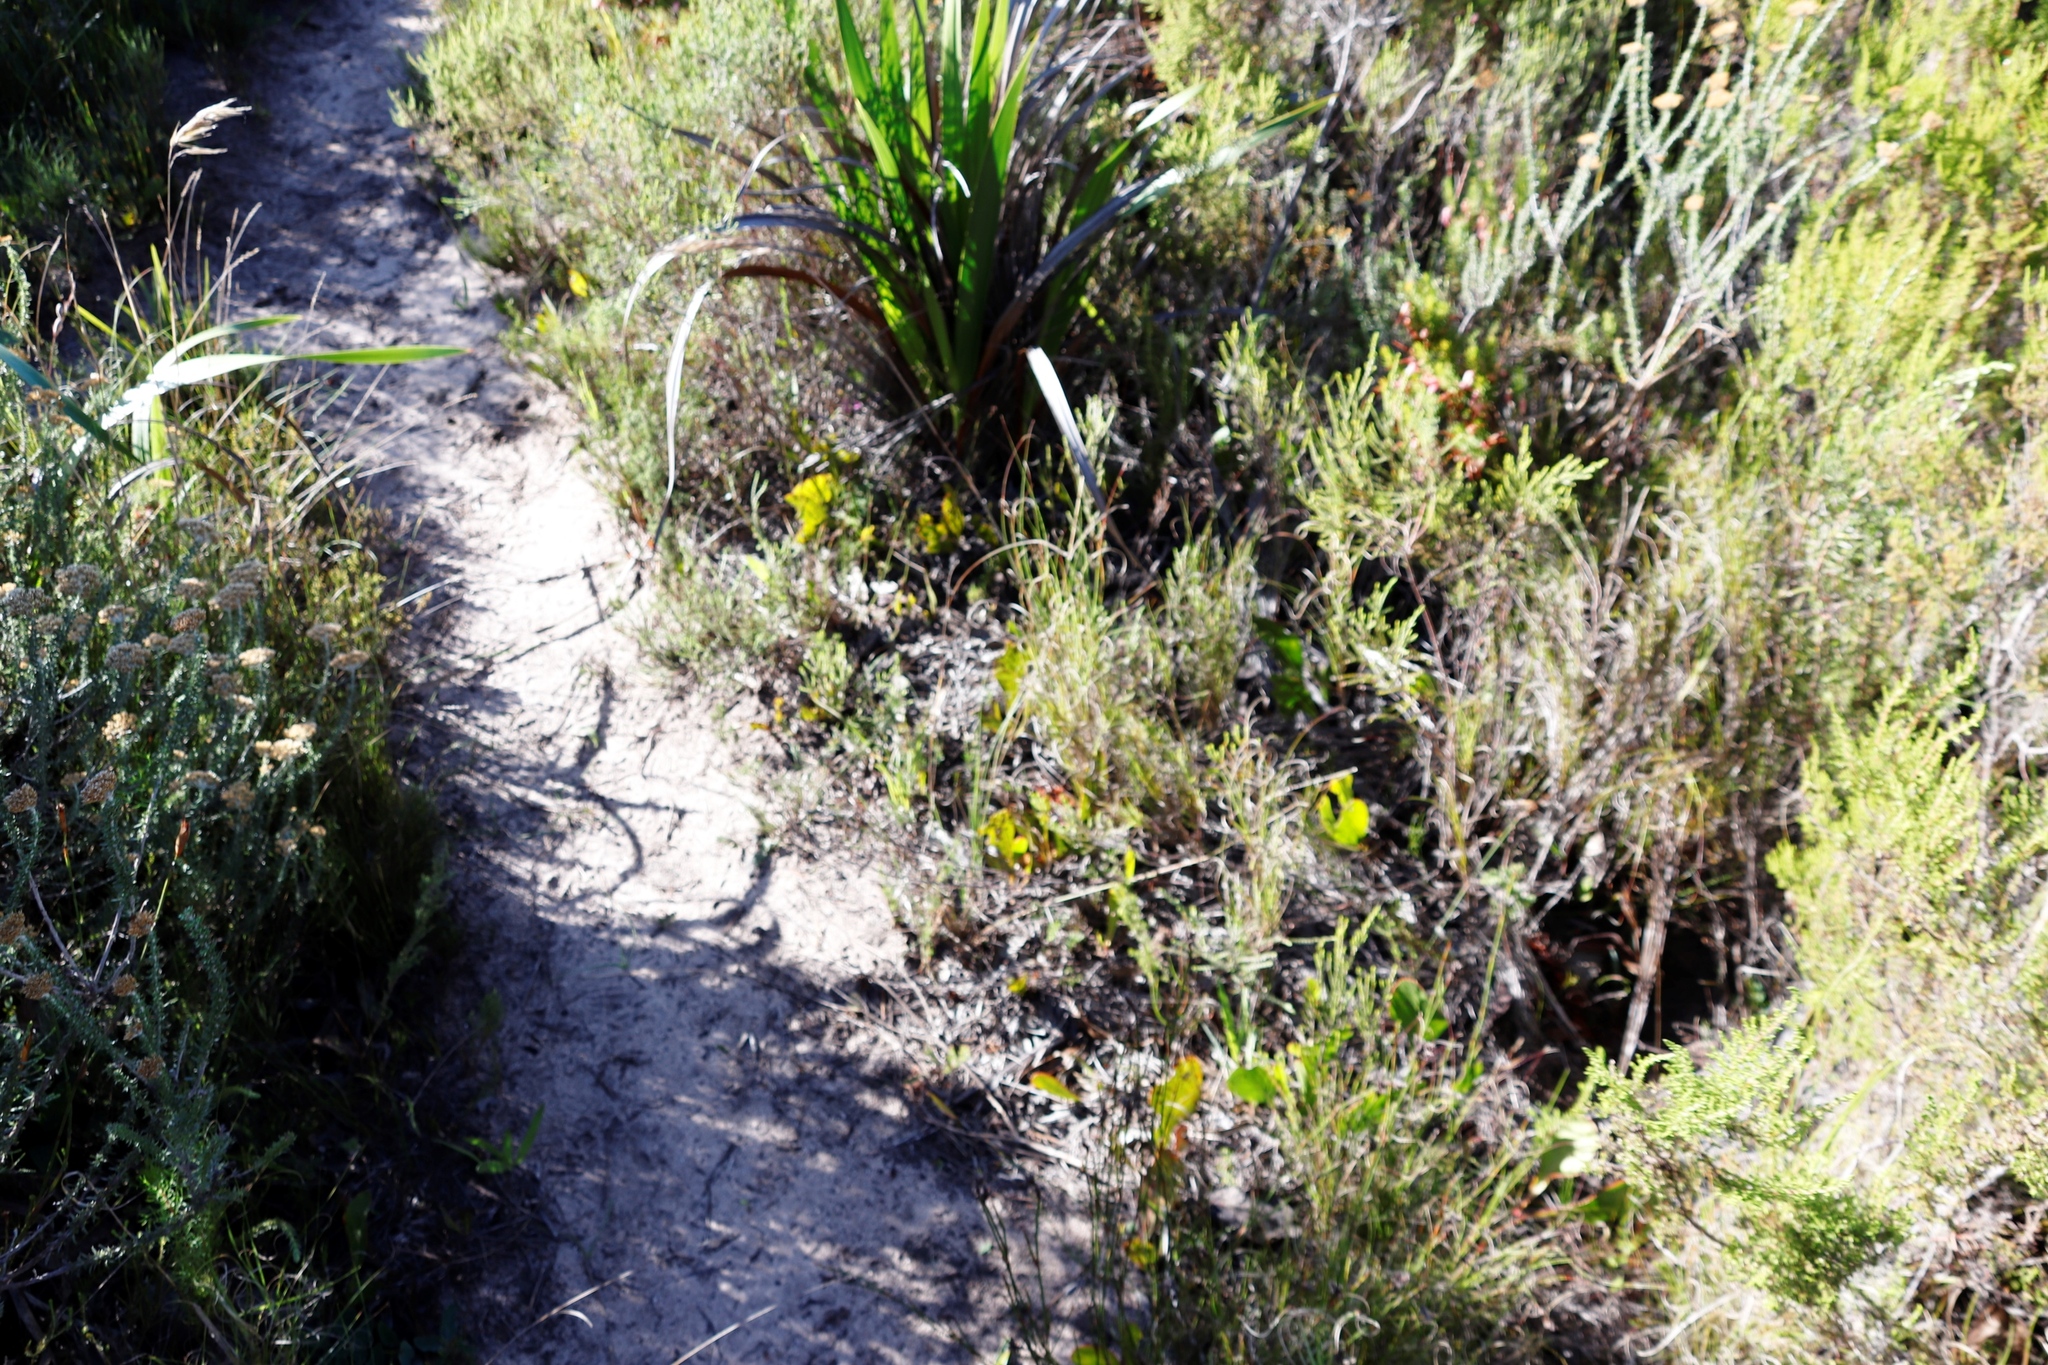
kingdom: Plantae
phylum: Tracheophyta
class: Magnoliopsida
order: Proteales
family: Proteaceae
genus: Protea
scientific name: Protea acaulos
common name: Common ground sugarbush
